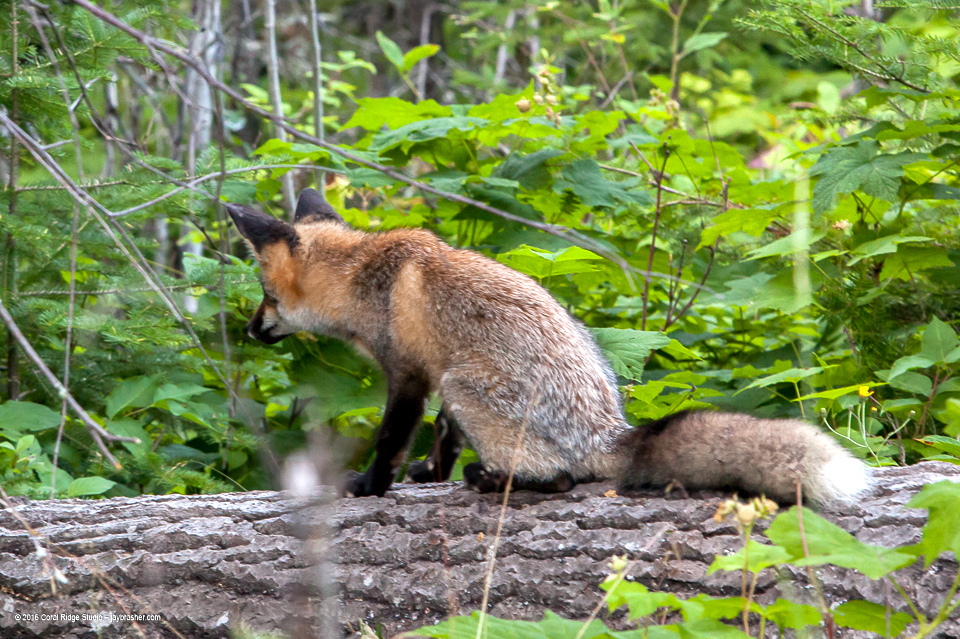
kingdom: Animalia
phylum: Chordata
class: Mammalia
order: Carnivora
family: Canidae
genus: Vulpes
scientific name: Vulpes vulpes
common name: Red fox
